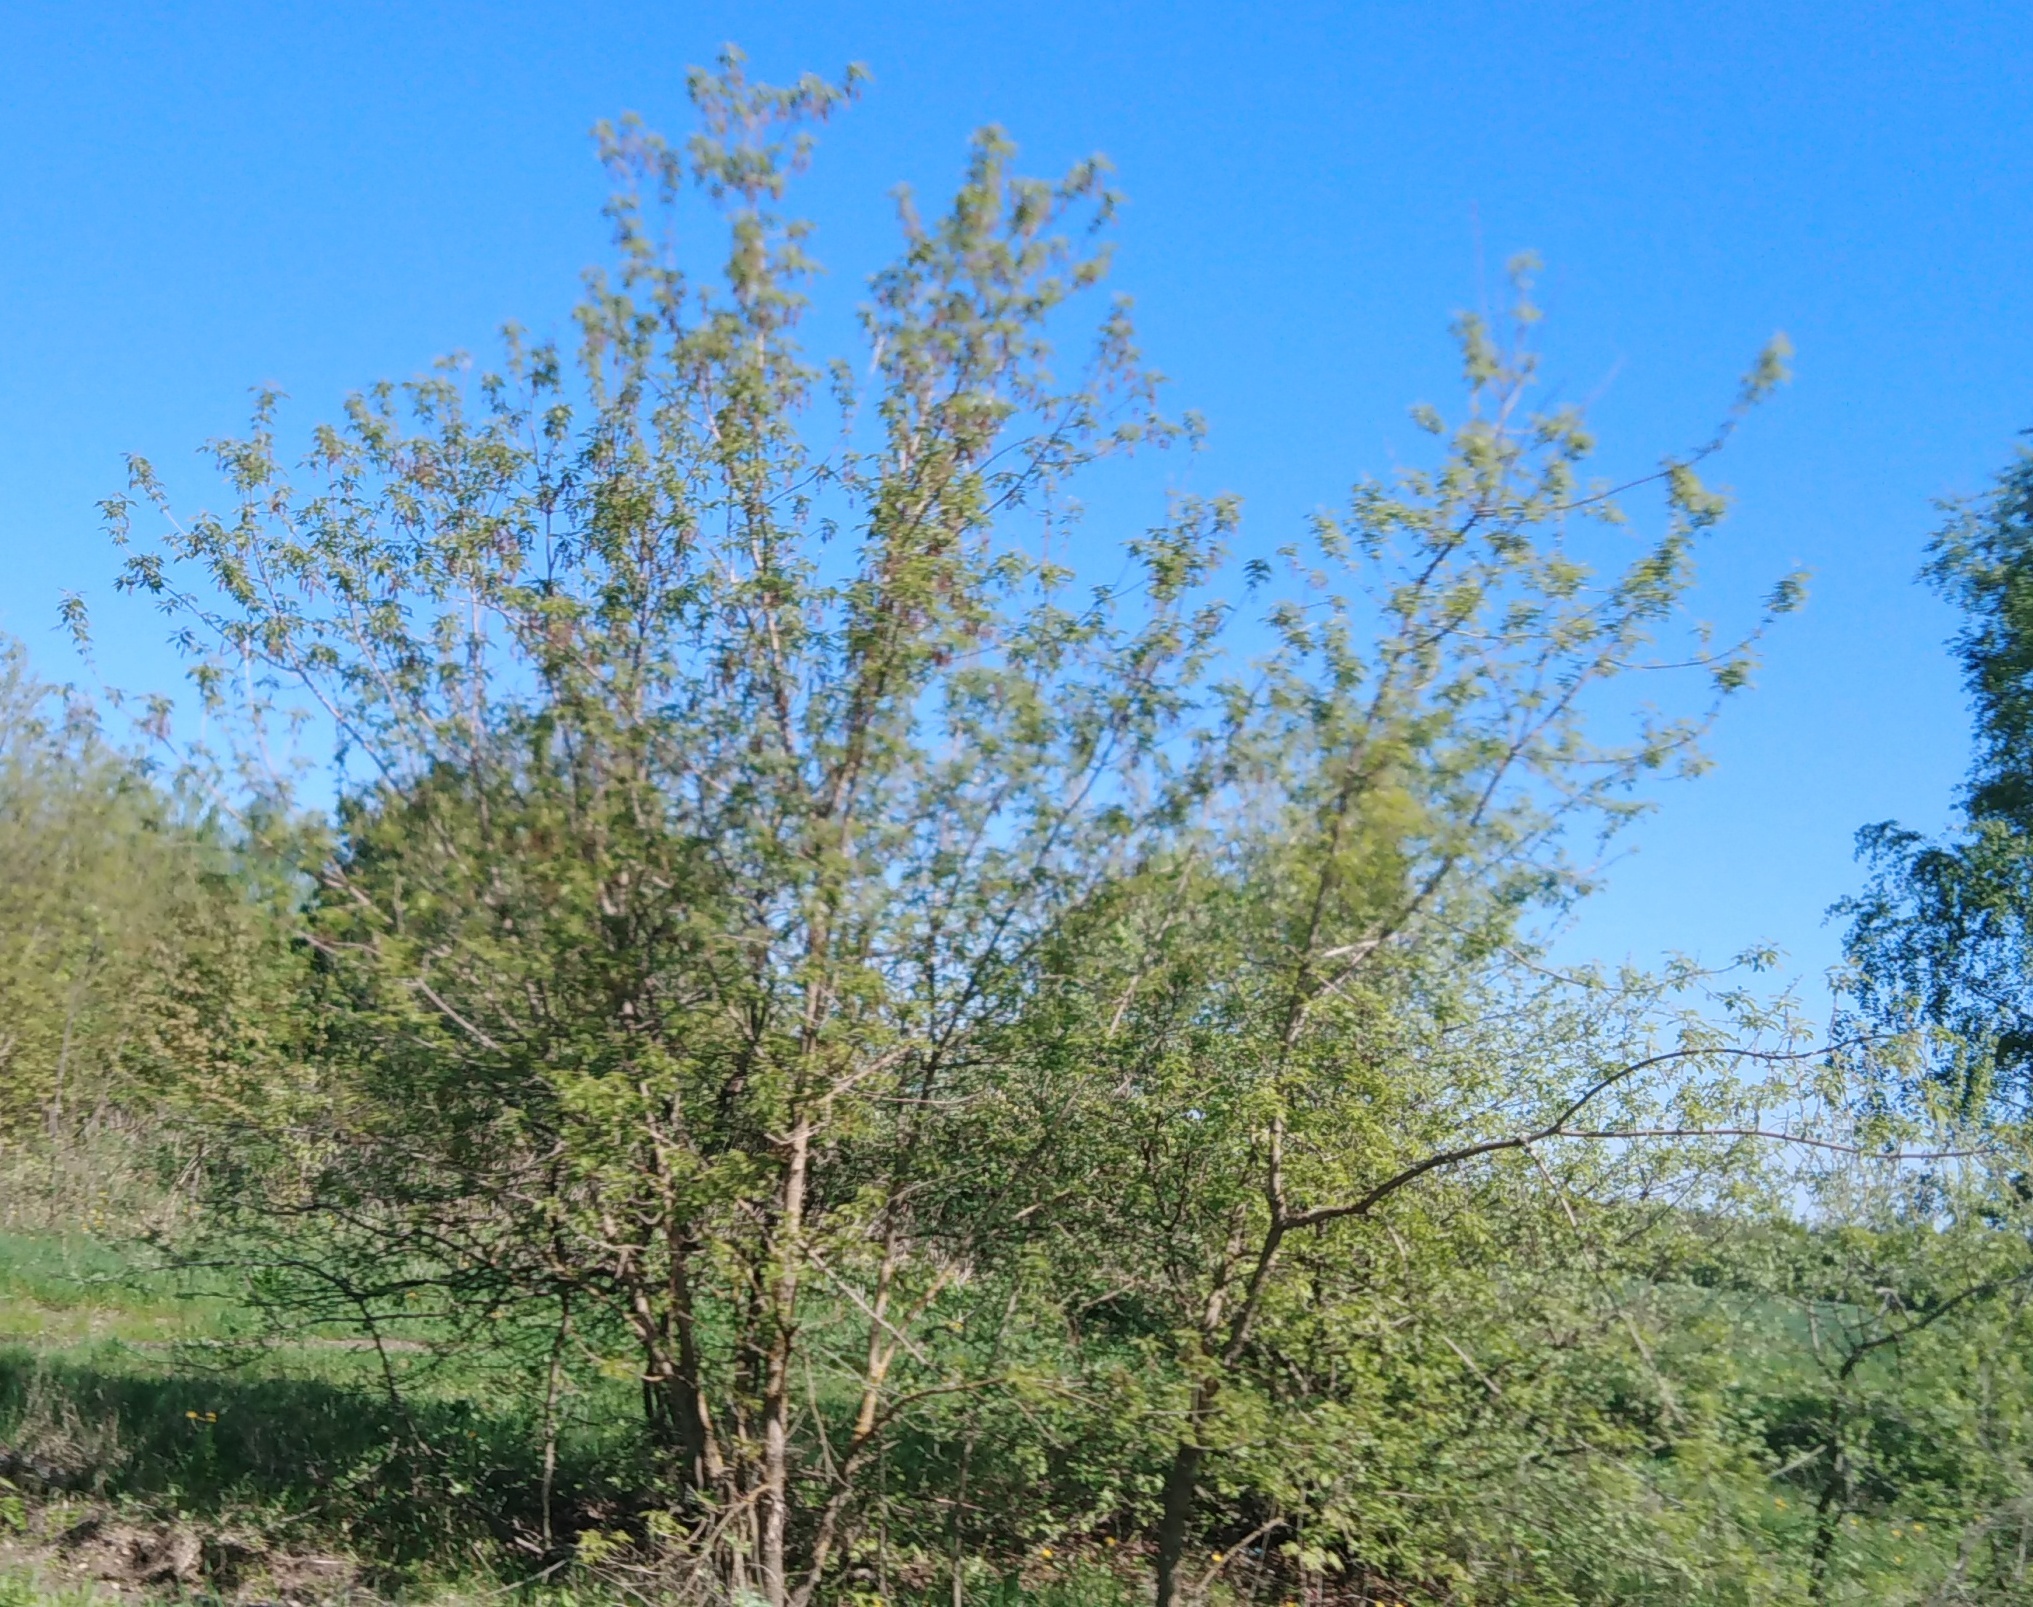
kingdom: Plantae
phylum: Tracheophyta
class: Magnoliopsida
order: Sapindales
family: Sapindaceae
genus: Acer
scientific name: Acer negundo
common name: Ashleaf maple
